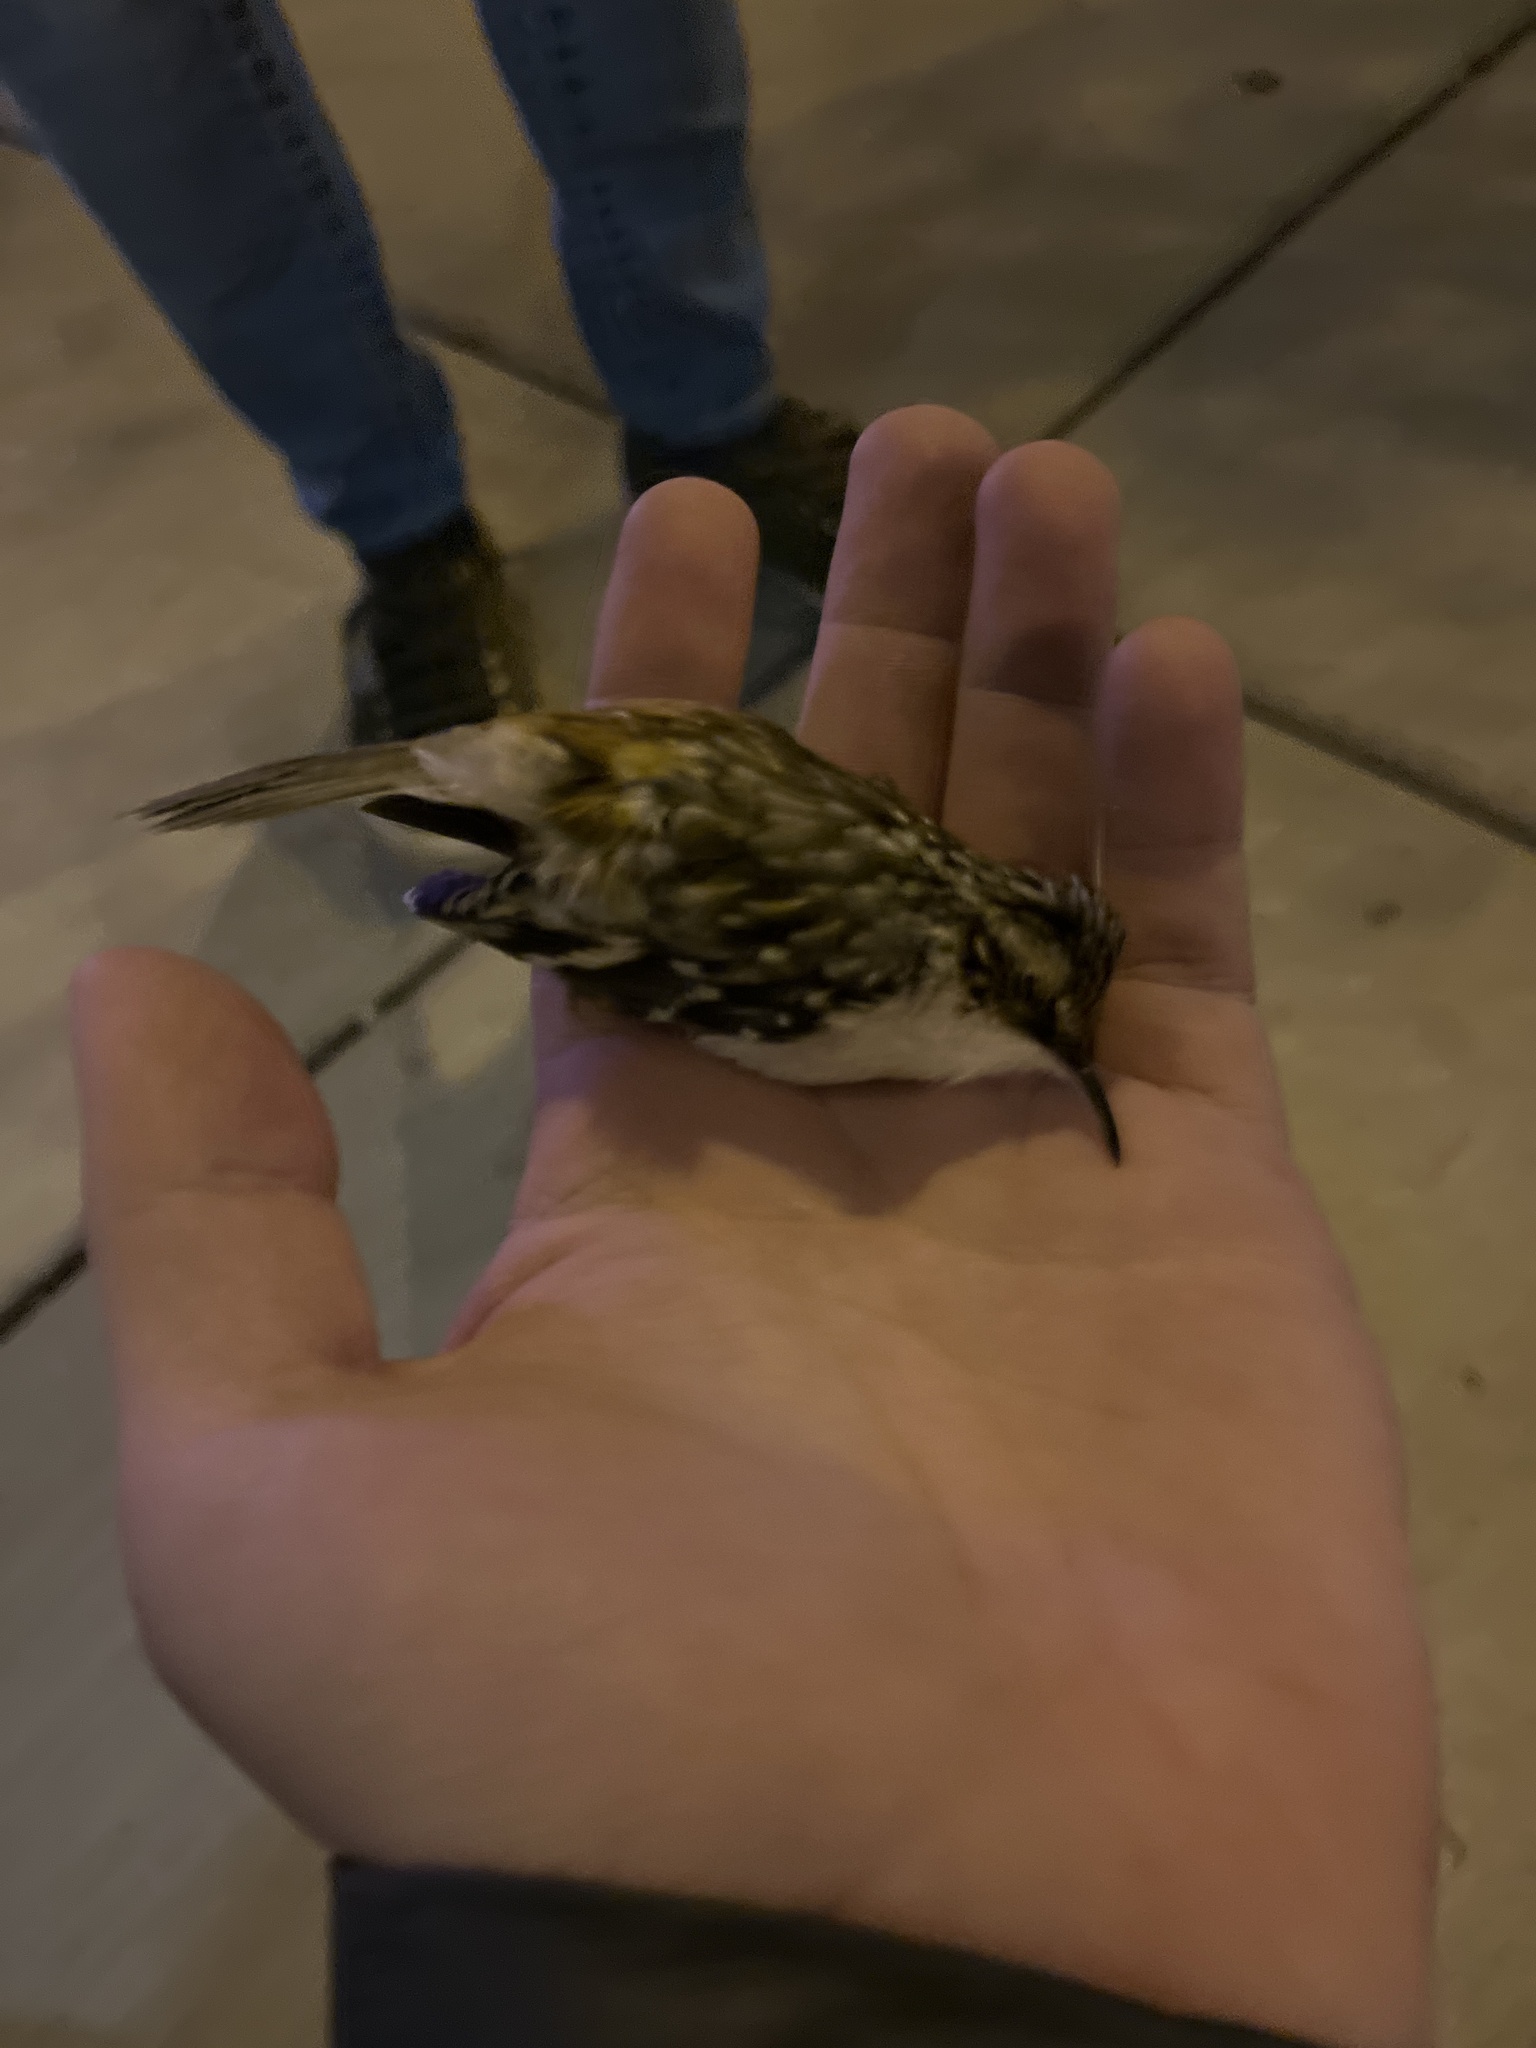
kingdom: Animalia
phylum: Chordata
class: Aves
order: Passeriformes
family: Certhiidae
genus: Certhia
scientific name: Certhia americana
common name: Brown creeper
